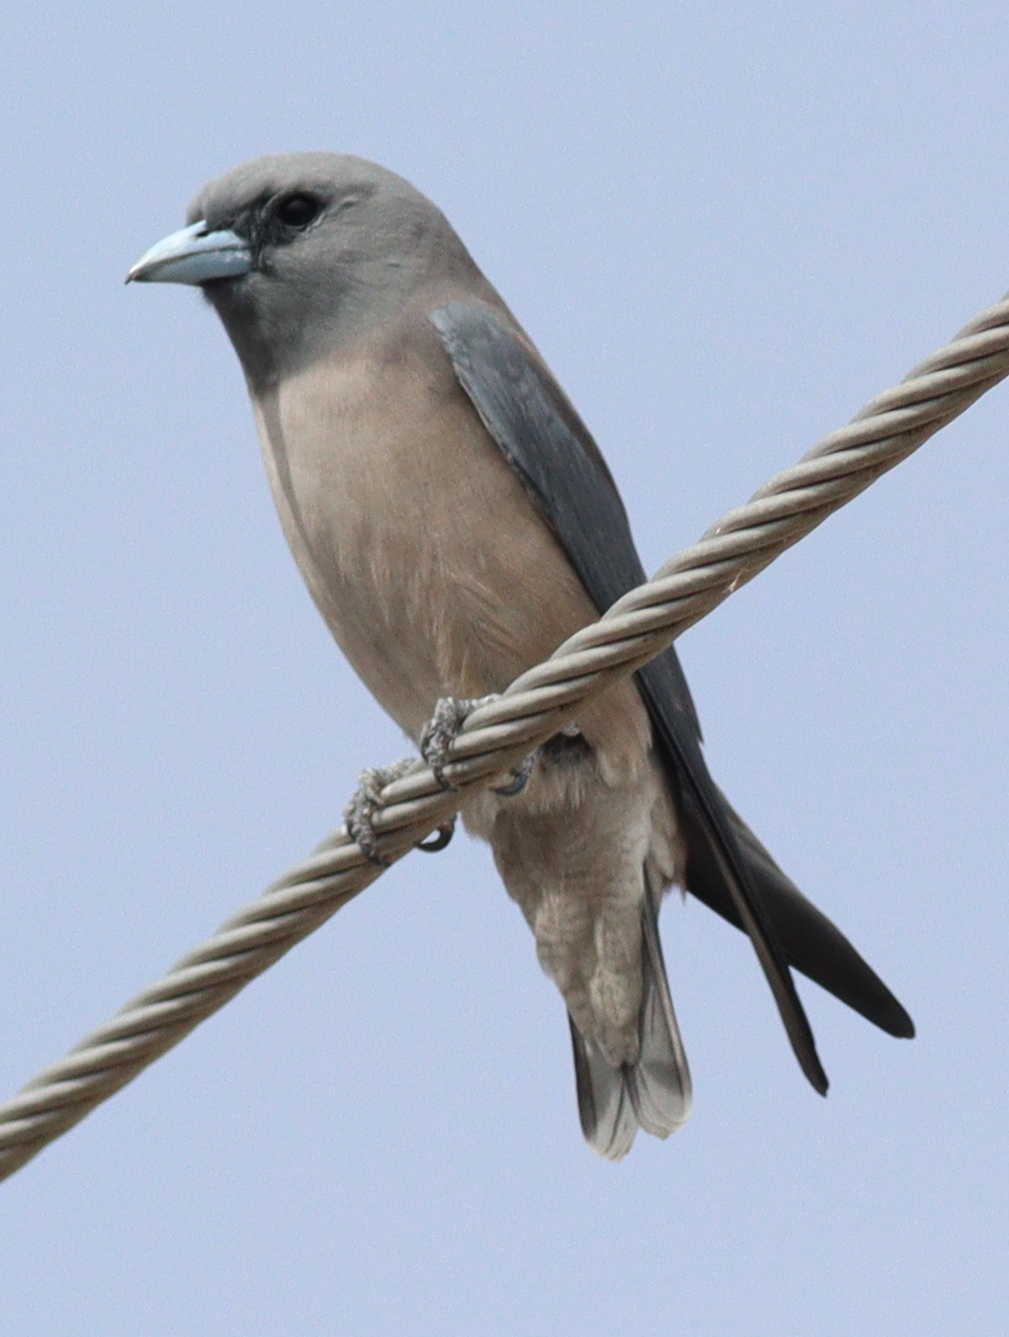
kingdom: Animalia
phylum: Chordata
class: Aves
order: Passeriformes
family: Artamidae
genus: Artamus
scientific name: Artamus fuscus
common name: Ashy woodswallow
